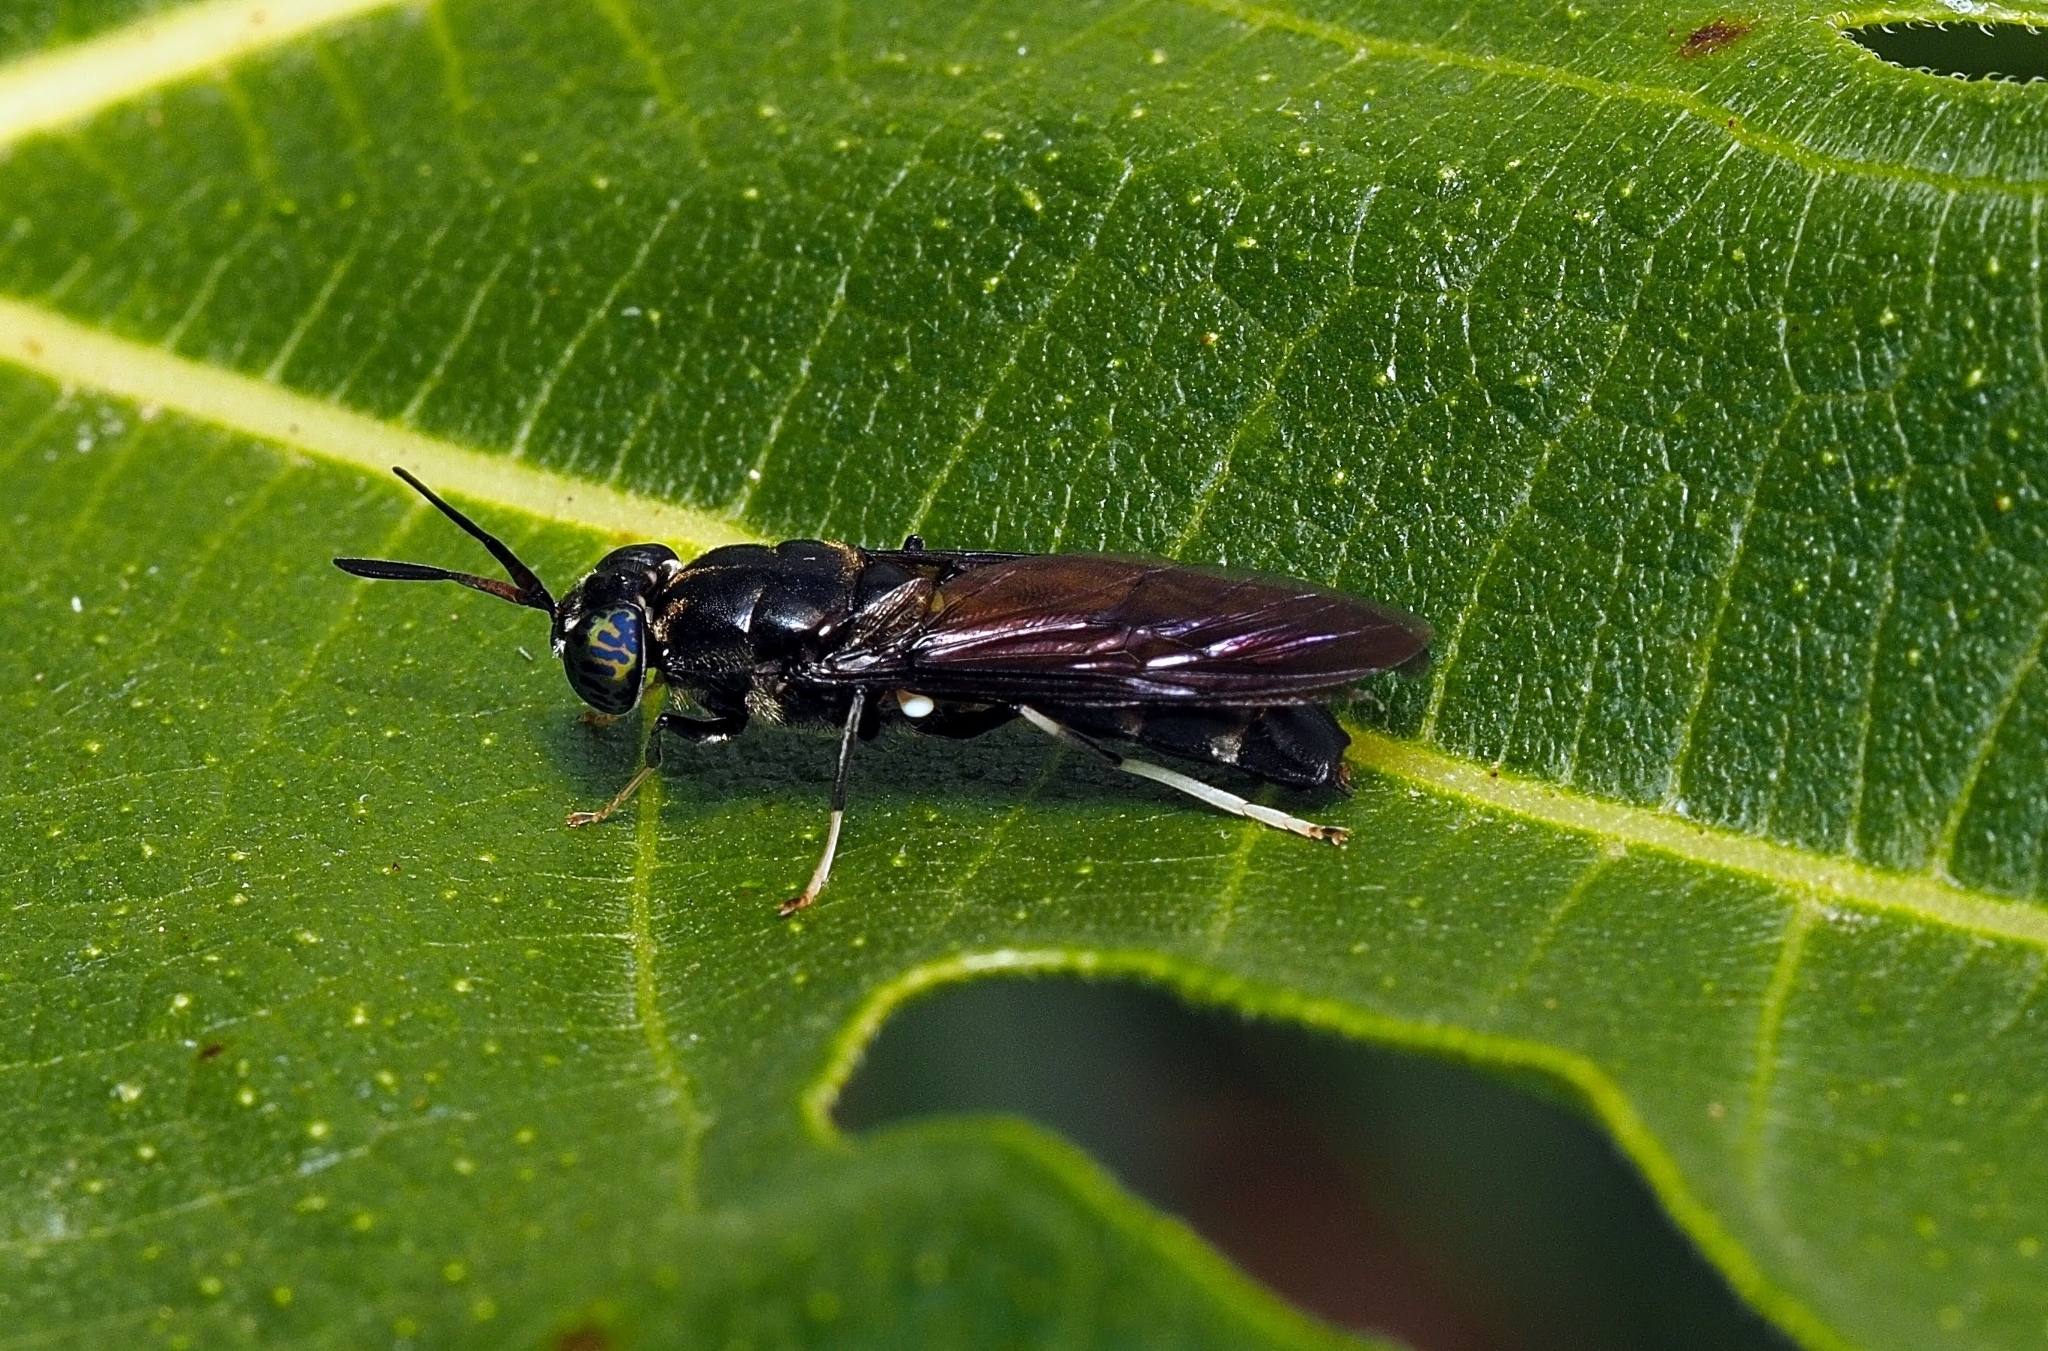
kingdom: Animalia
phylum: Arthropoda
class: Insecta
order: Diptera
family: Stratiomyidae
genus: Hermetia
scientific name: Hermetia illucens
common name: Black soldier fly
